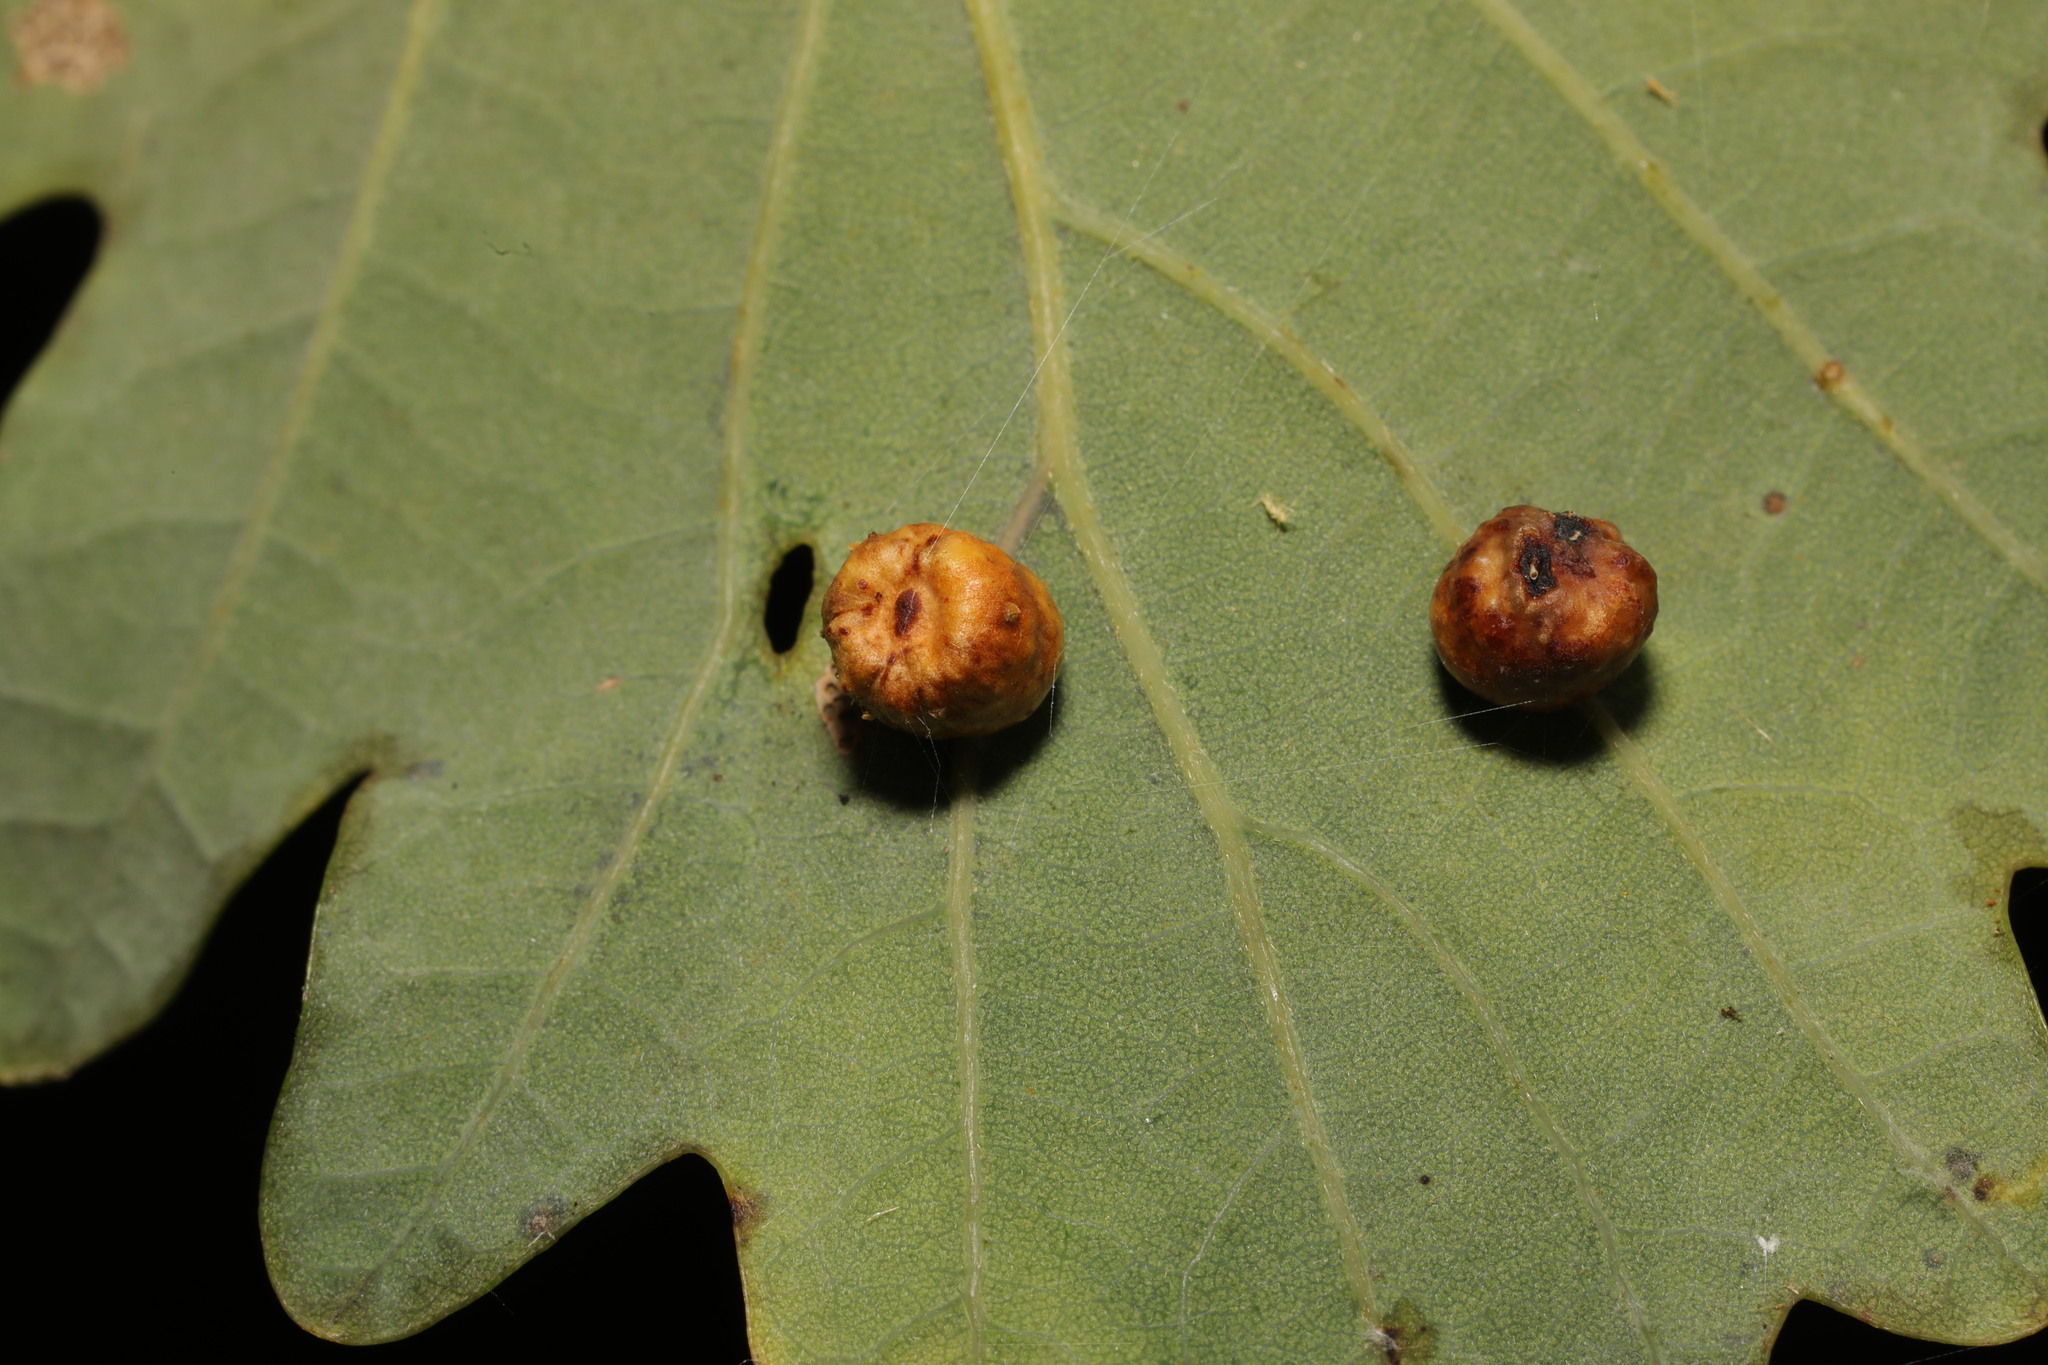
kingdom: Animalia
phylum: Arthropoda
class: Insecta
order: Hymenoptera
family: Cynipidae
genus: Cynips
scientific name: Cynips disticha
